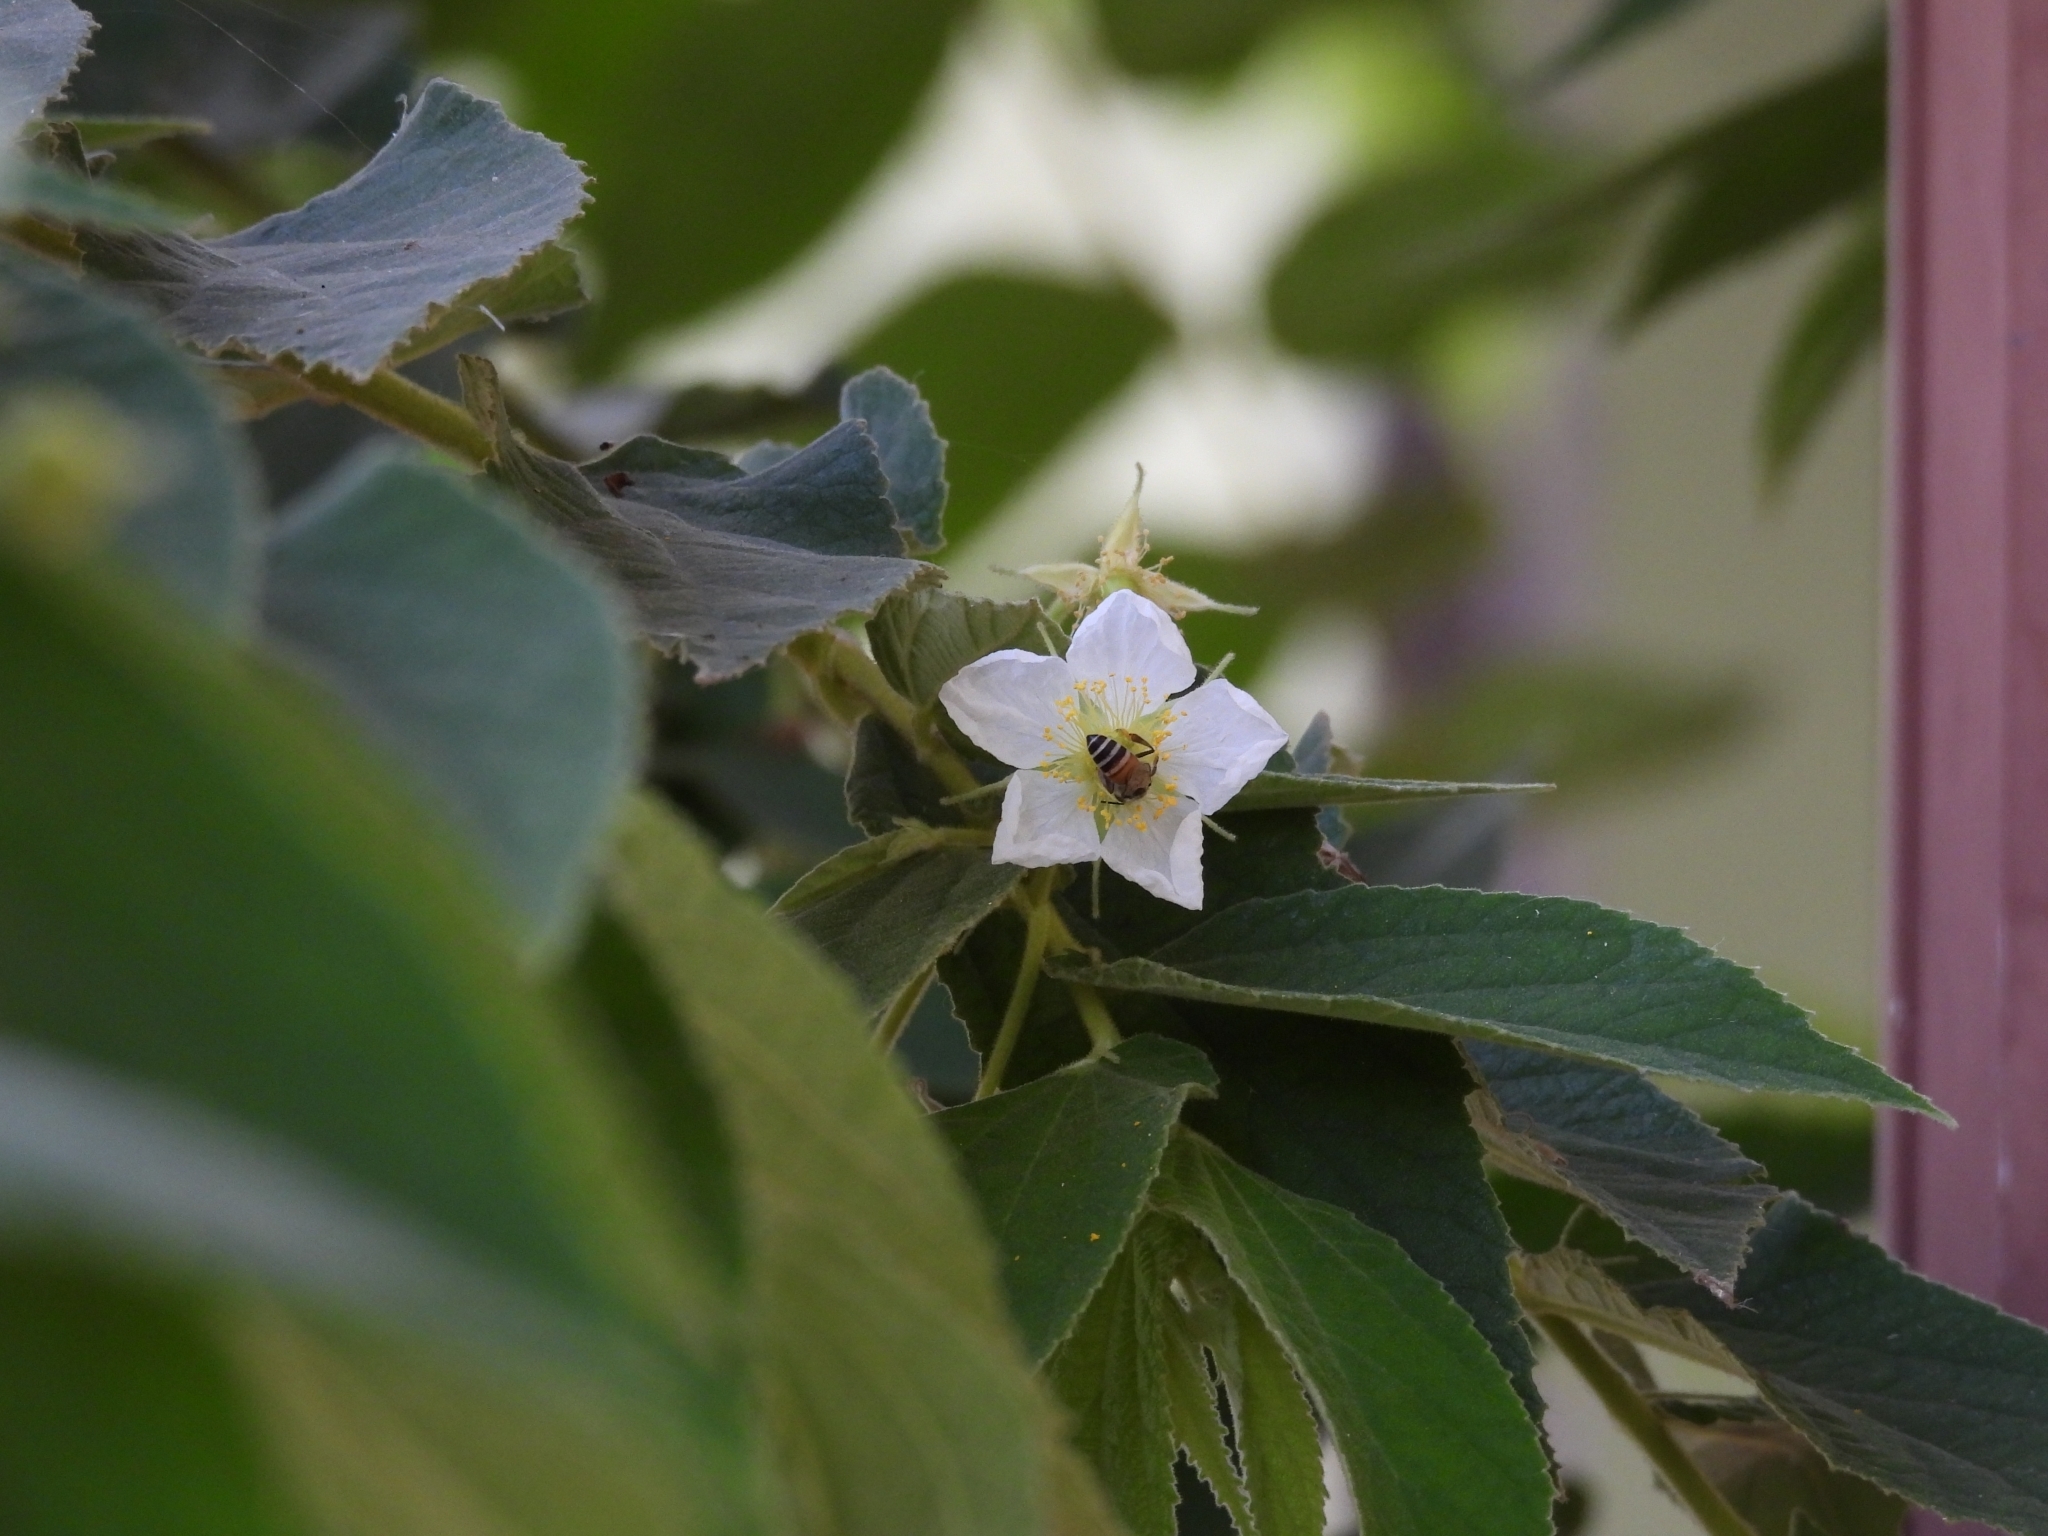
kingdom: Animalia
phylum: Arthropoda
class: Insecta
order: Hymenoptera
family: Apidae
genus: Apis
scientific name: Apis florea
